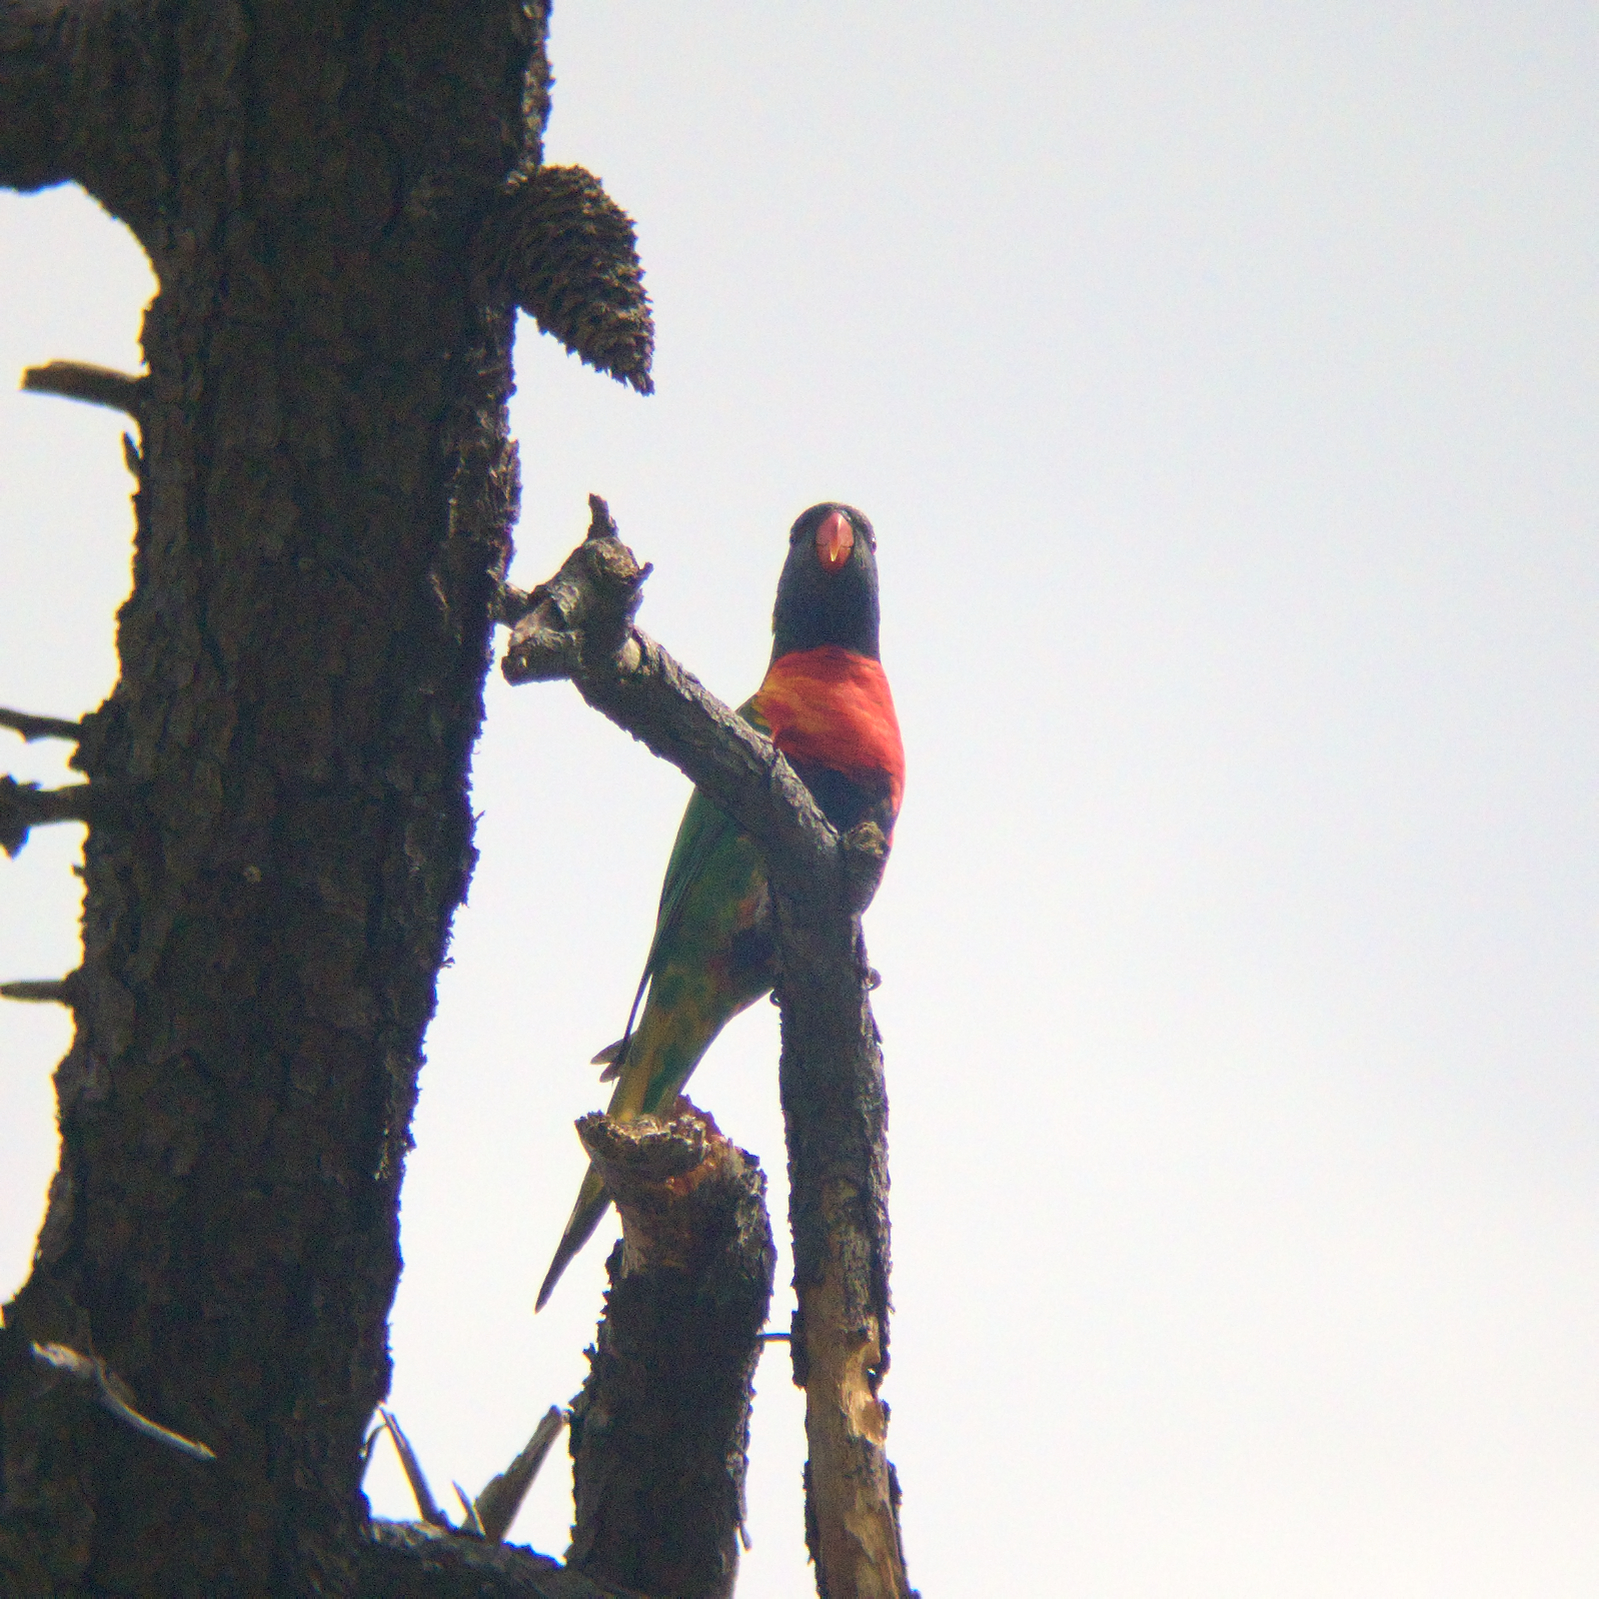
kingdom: Animalia
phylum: Chordata
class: Aves
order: Psittaciformes
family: Psittacidae
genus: Trichoglossus
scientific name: Trichoglossus haematodus
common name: Coconut lorikeet
